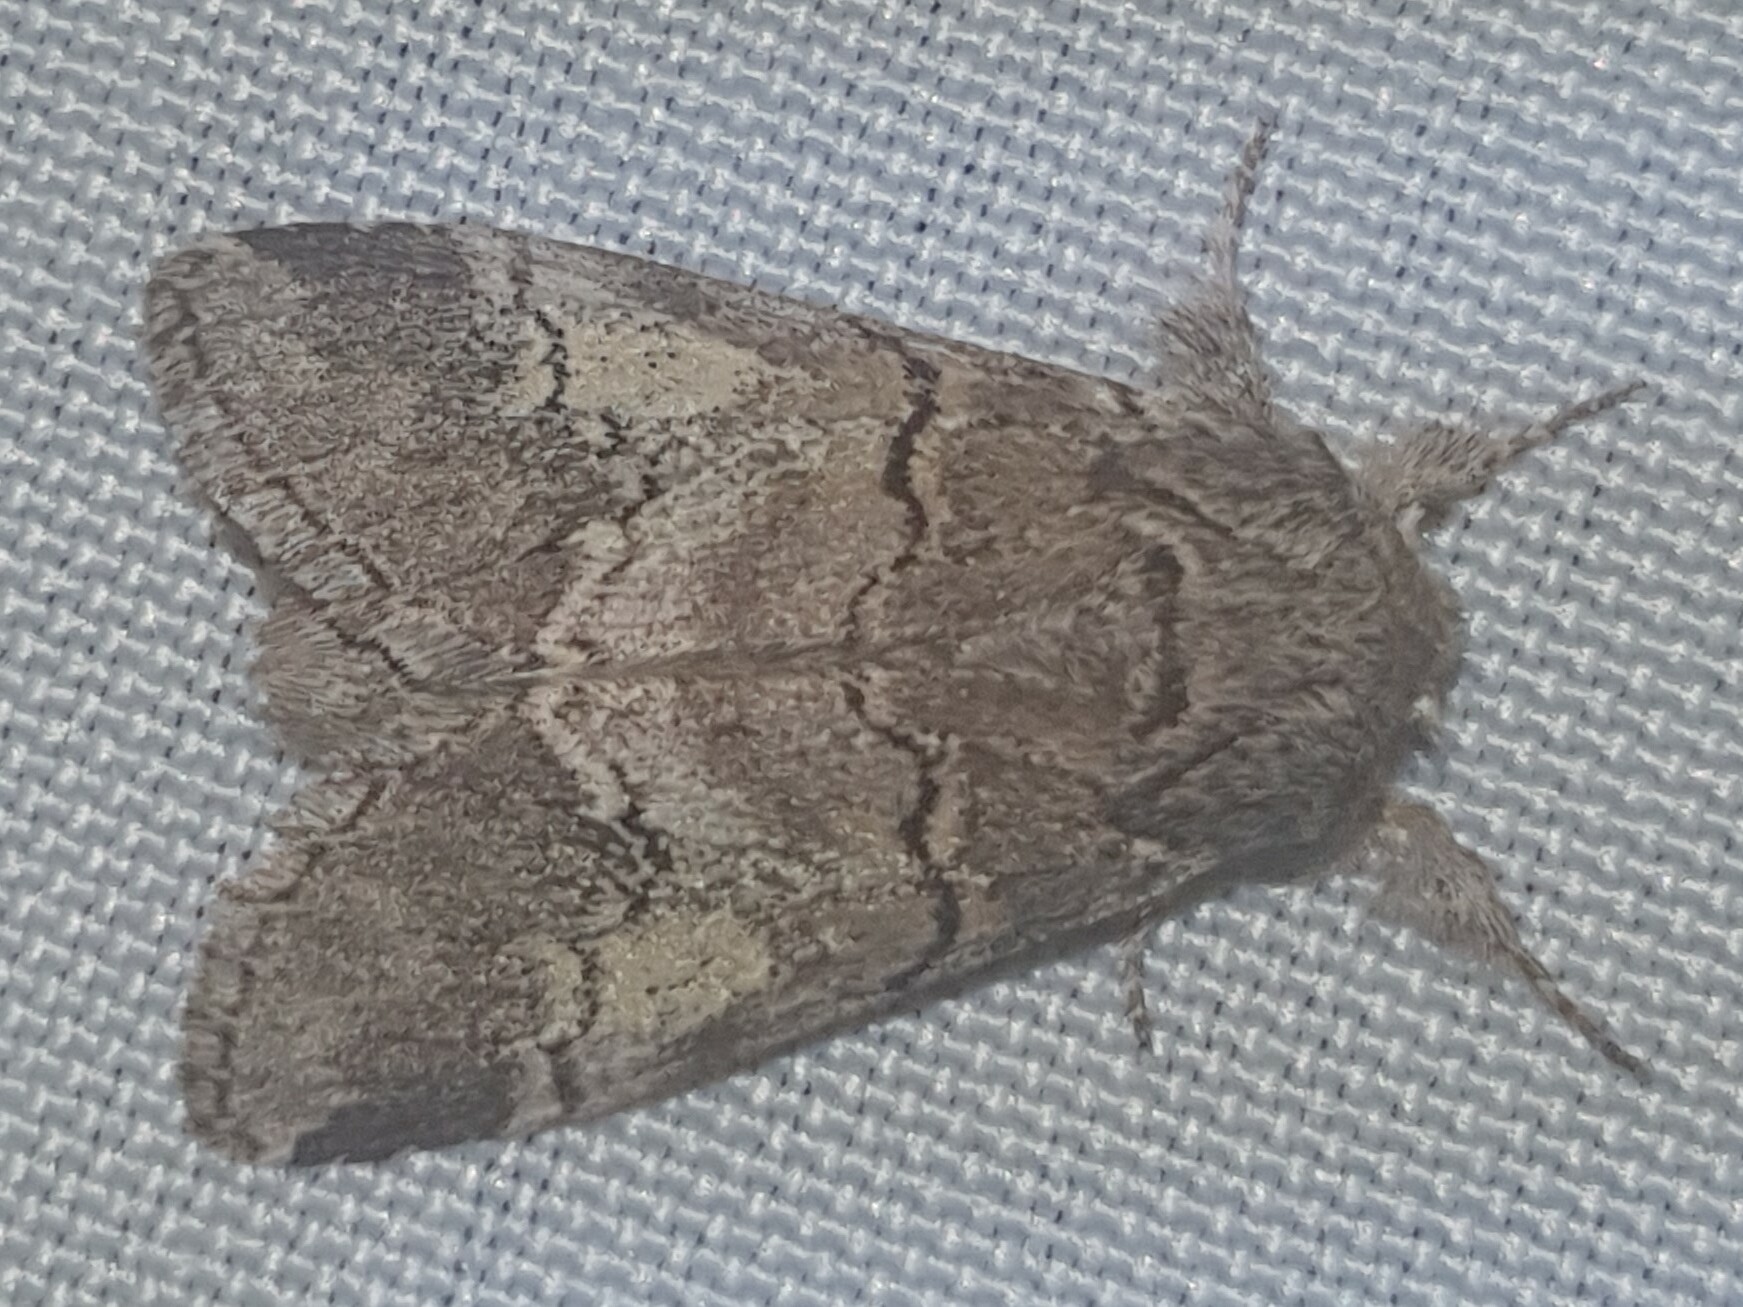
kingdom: Animalia
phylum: Arthropoda
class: Insecta
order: Lepidoptera
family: Notodontidae
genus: Drymonia
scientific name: Drymonia querna
